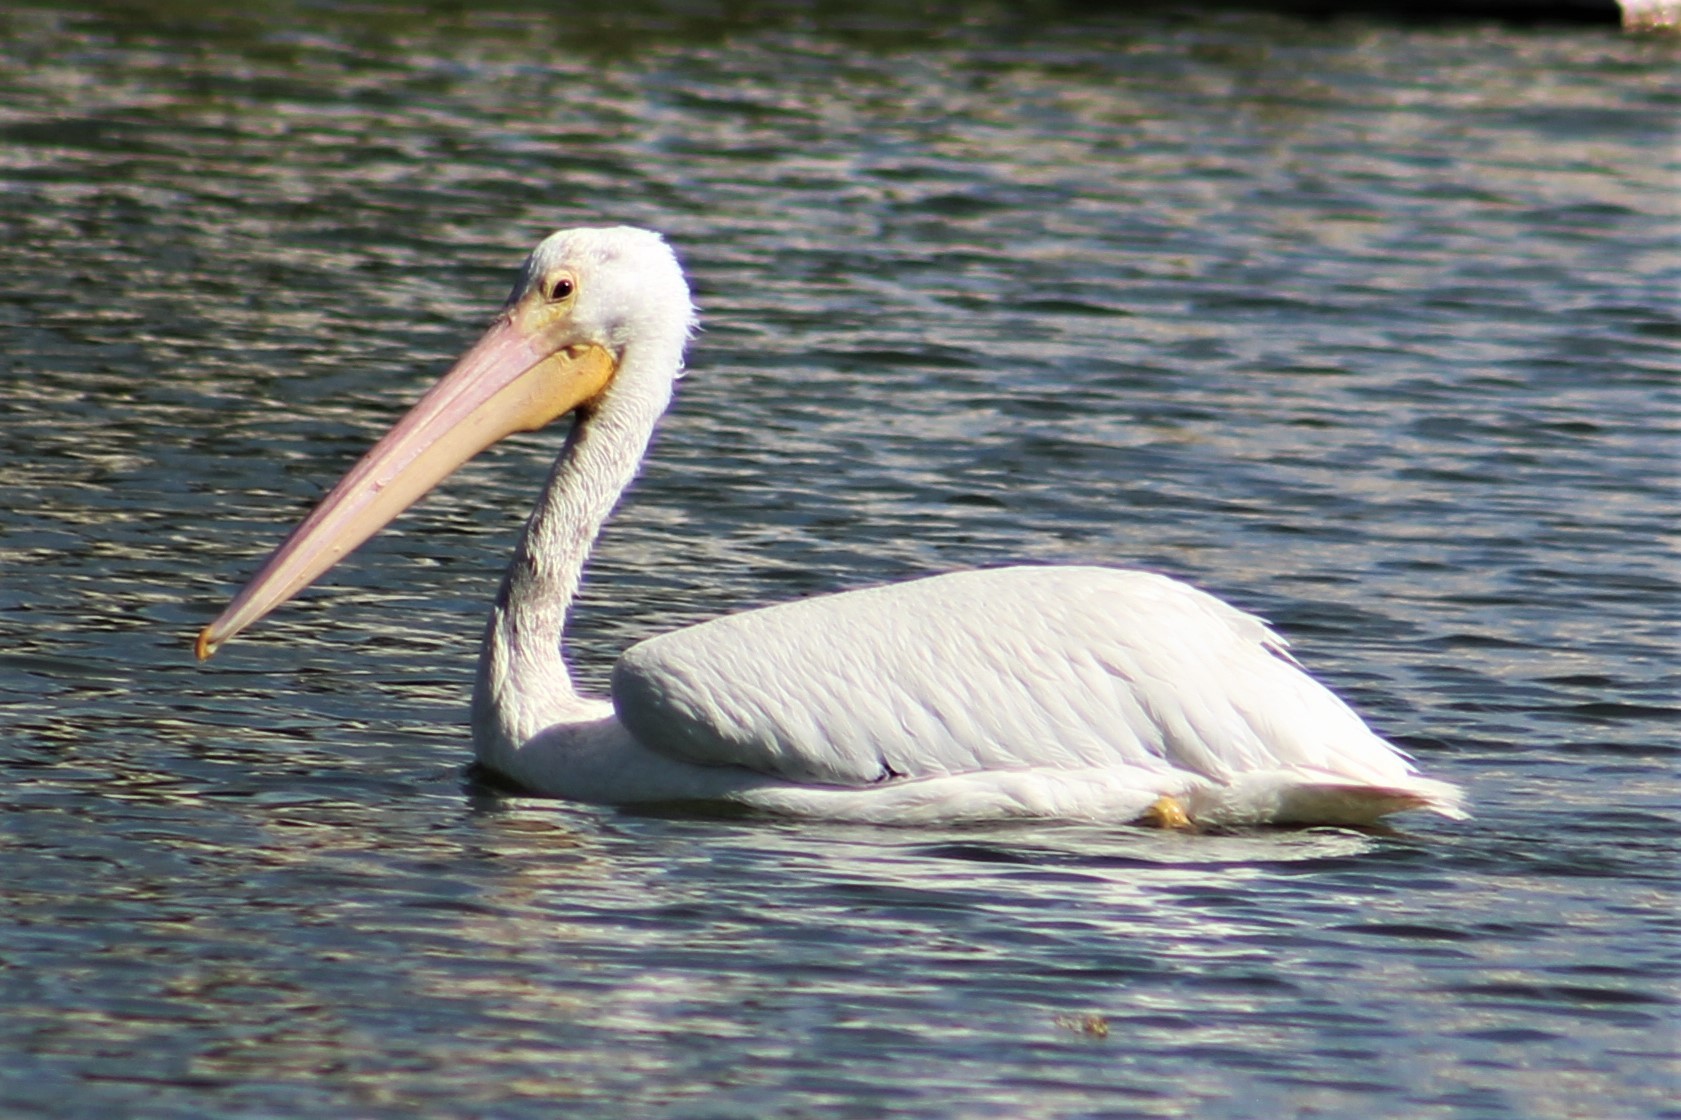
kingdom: Animalia
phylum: Chordata
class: Aves
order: Pelecaniformes
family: Pelecanidae
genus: Pelecanus
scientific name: Pelecanus erythrorhynchos
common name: American white pelican
